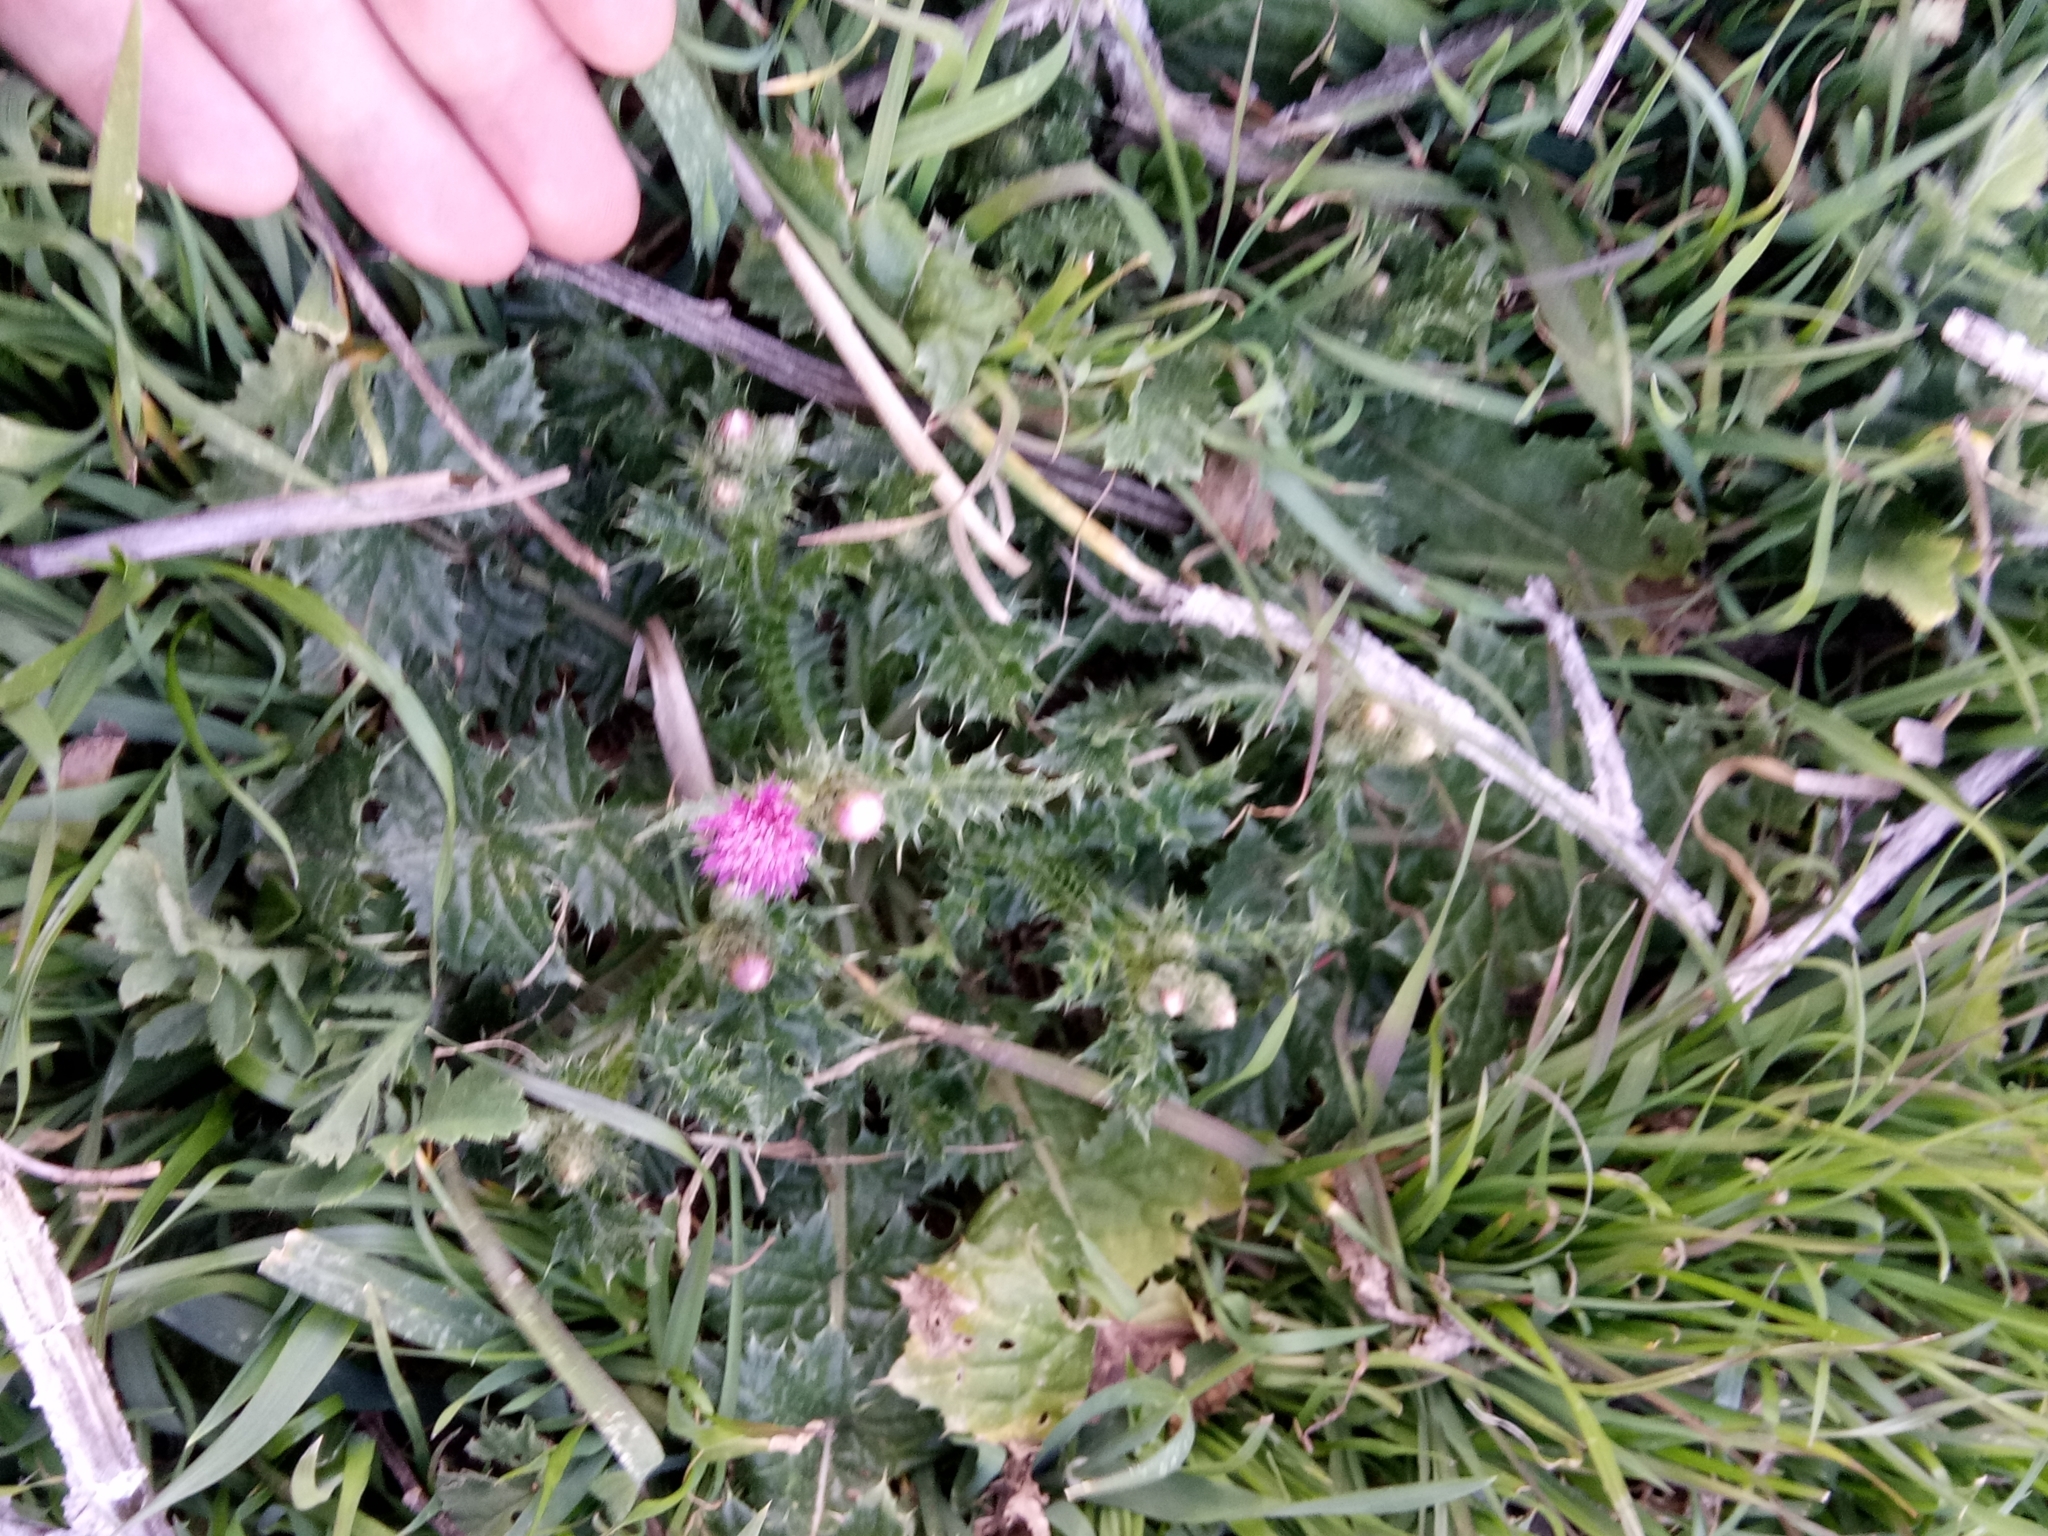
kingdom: Plantae
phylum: Tracheophyta
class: Magnoliopsida
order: Asterales
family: Asteraceae
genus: Carduus
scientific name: Carduus spachianus
